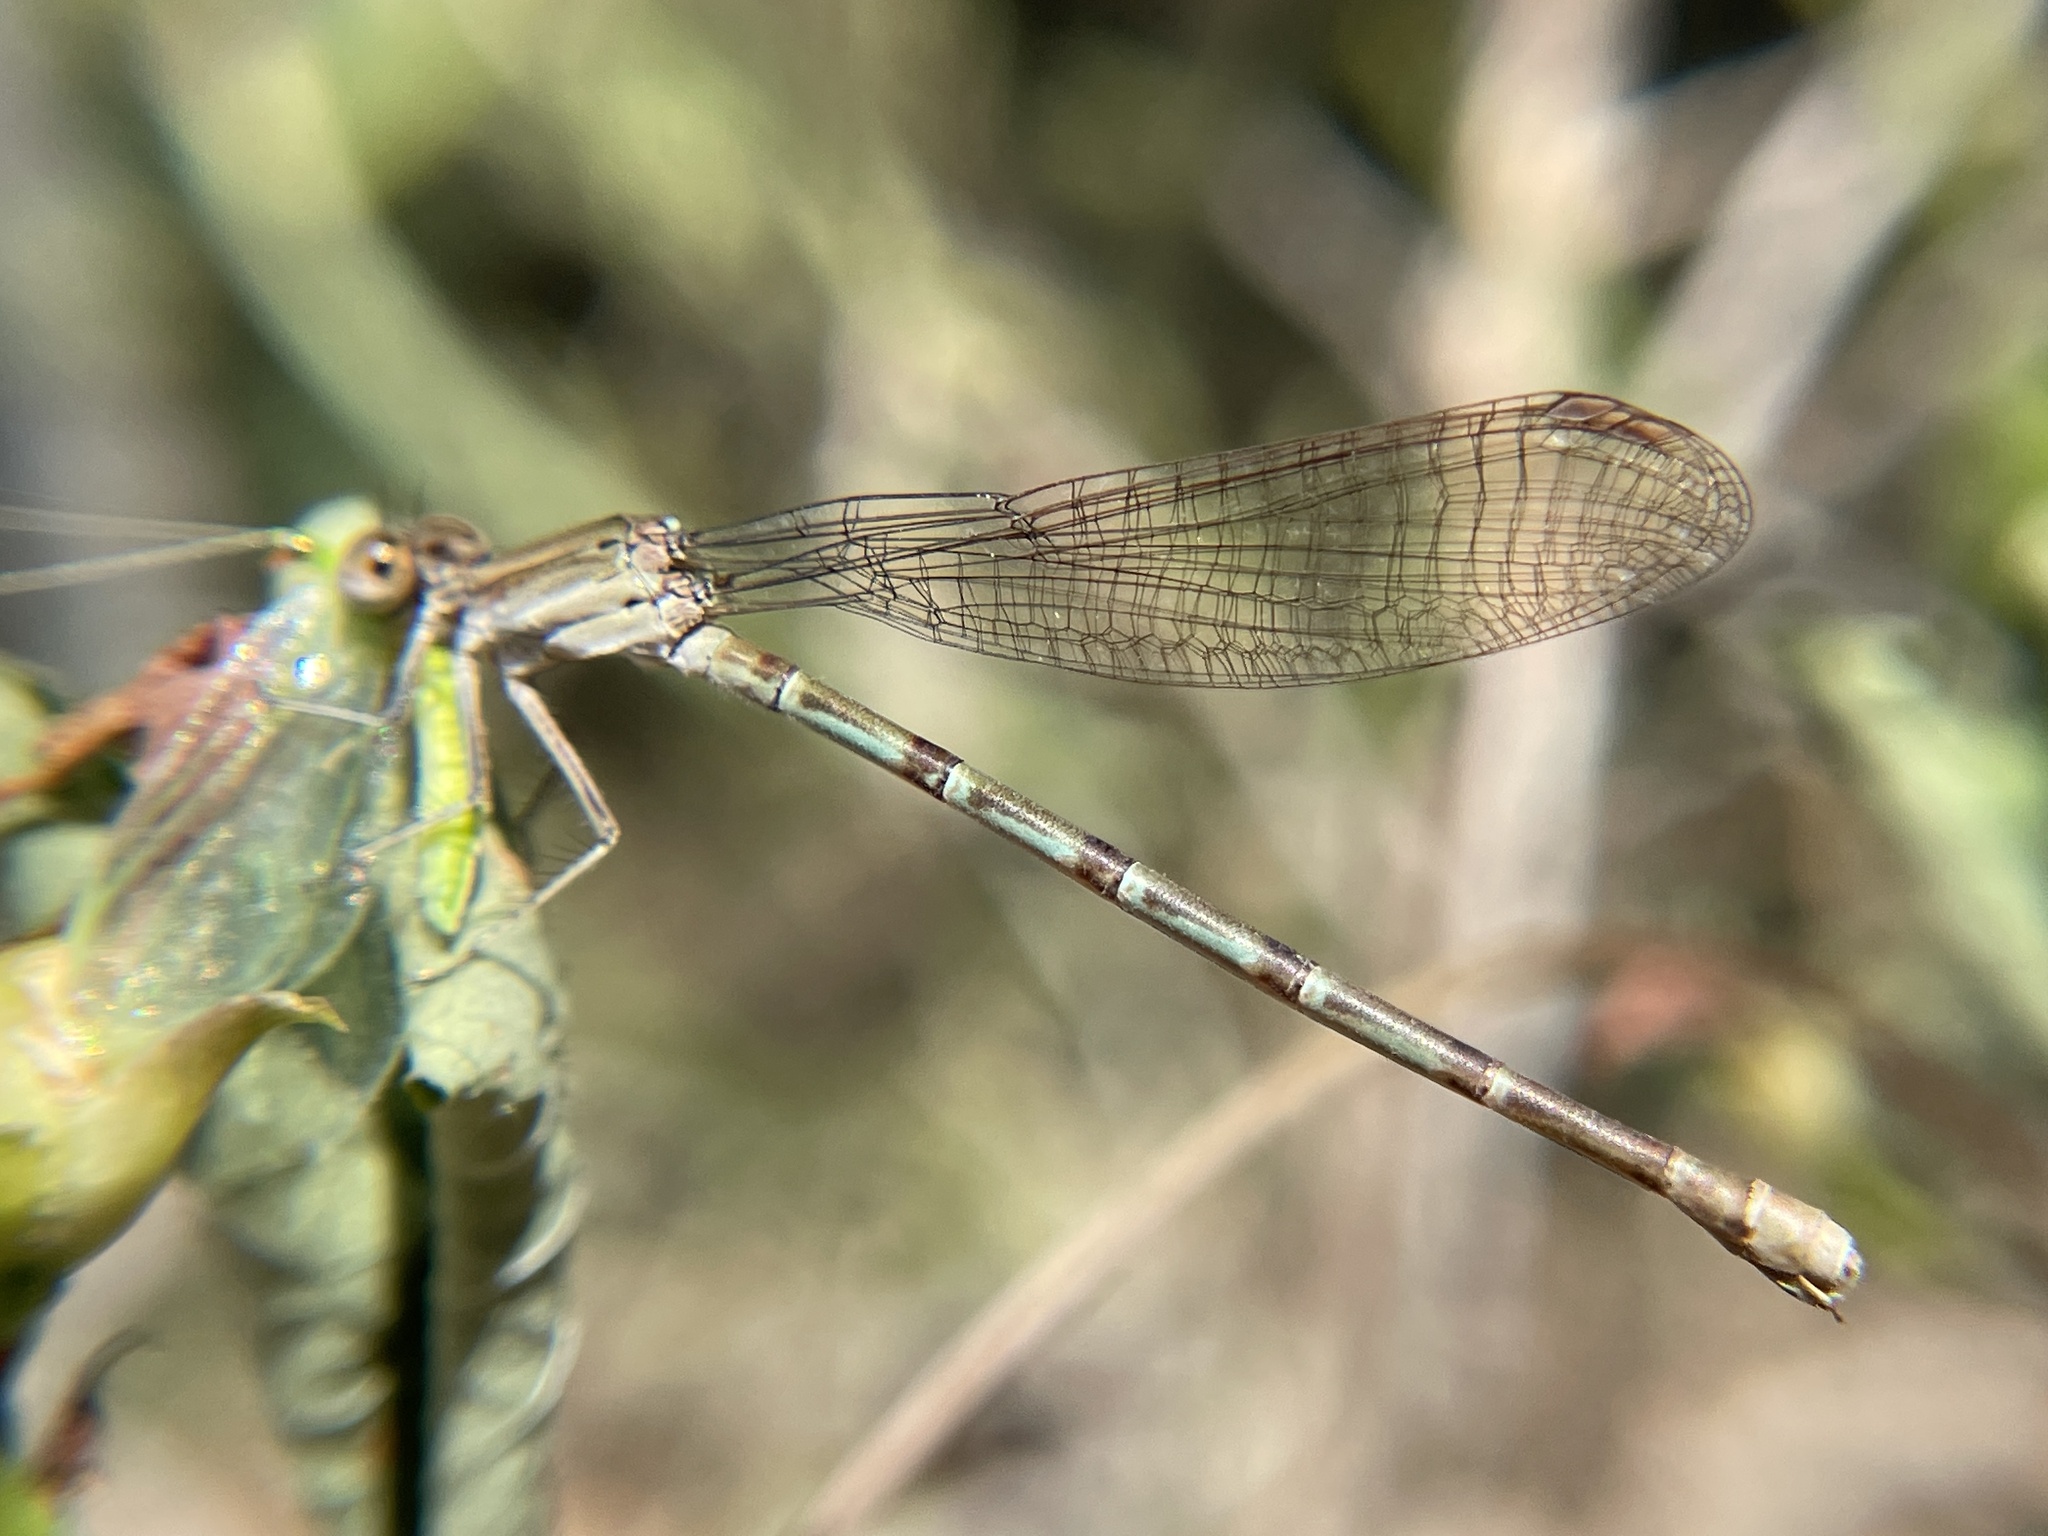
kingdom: Animalia
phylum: Arthropoda
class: Insecta
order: Odonata
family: Coenagrionidae
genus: Argia
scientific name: Argia sedula
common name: Blue-ringed dancer
